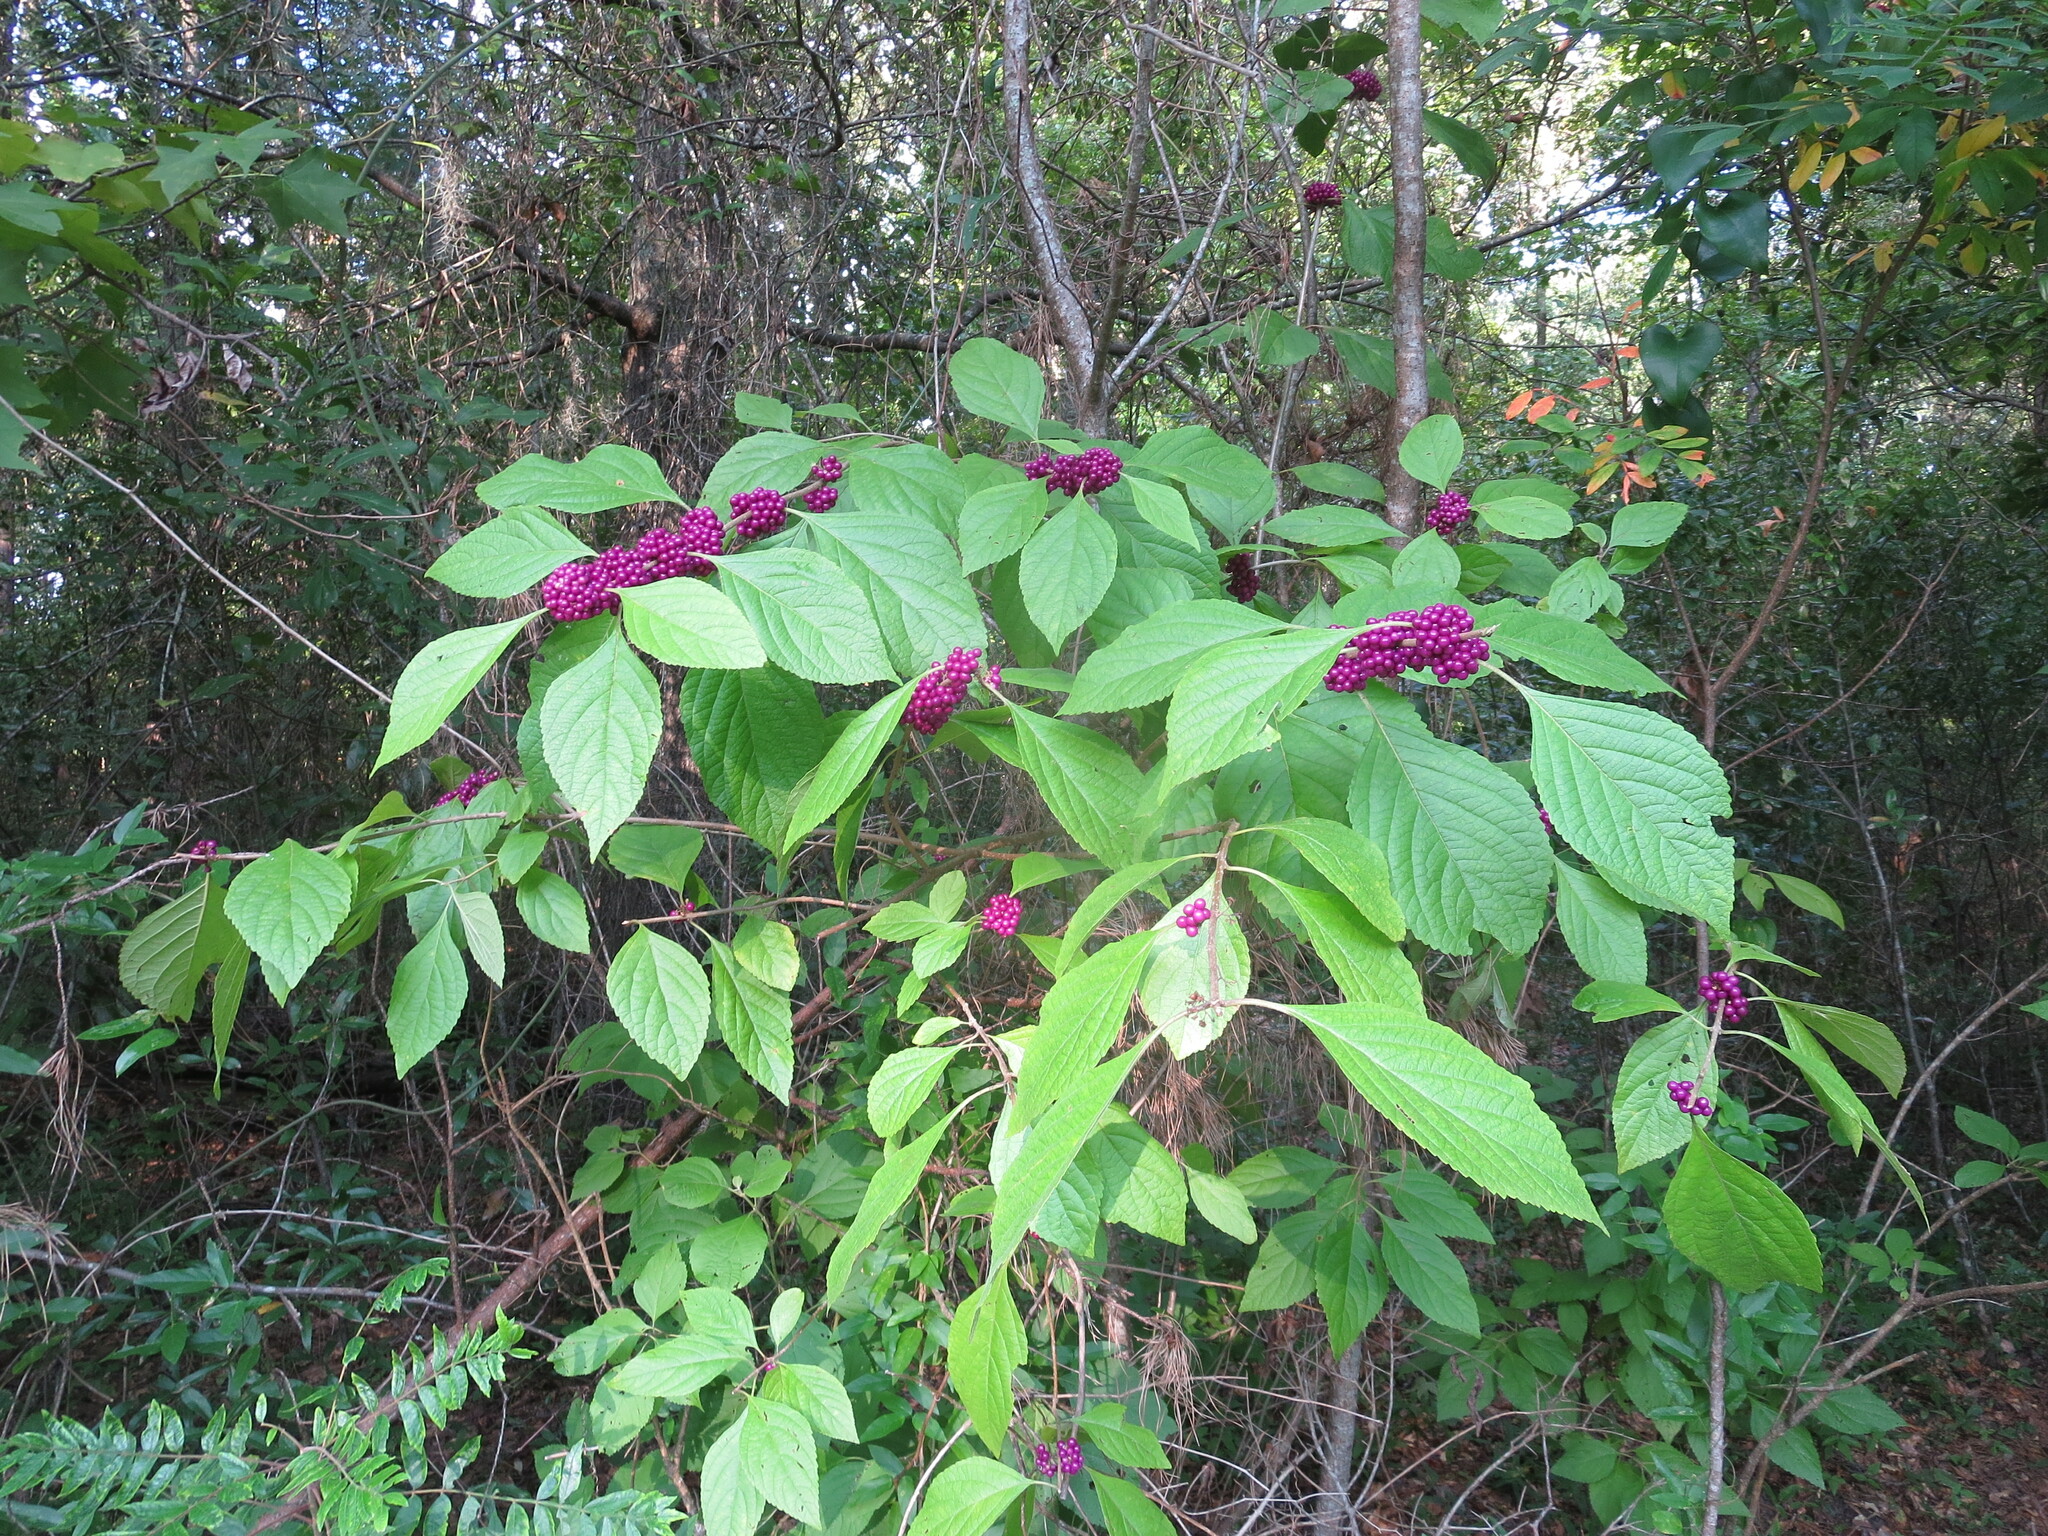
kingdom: Plantae
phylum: Tracheophyta
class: Magnoliopsida
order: Lamiales
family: Lamiaceae
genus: Callicarpa
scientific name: Callicarpa americana
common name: American beautyberry
